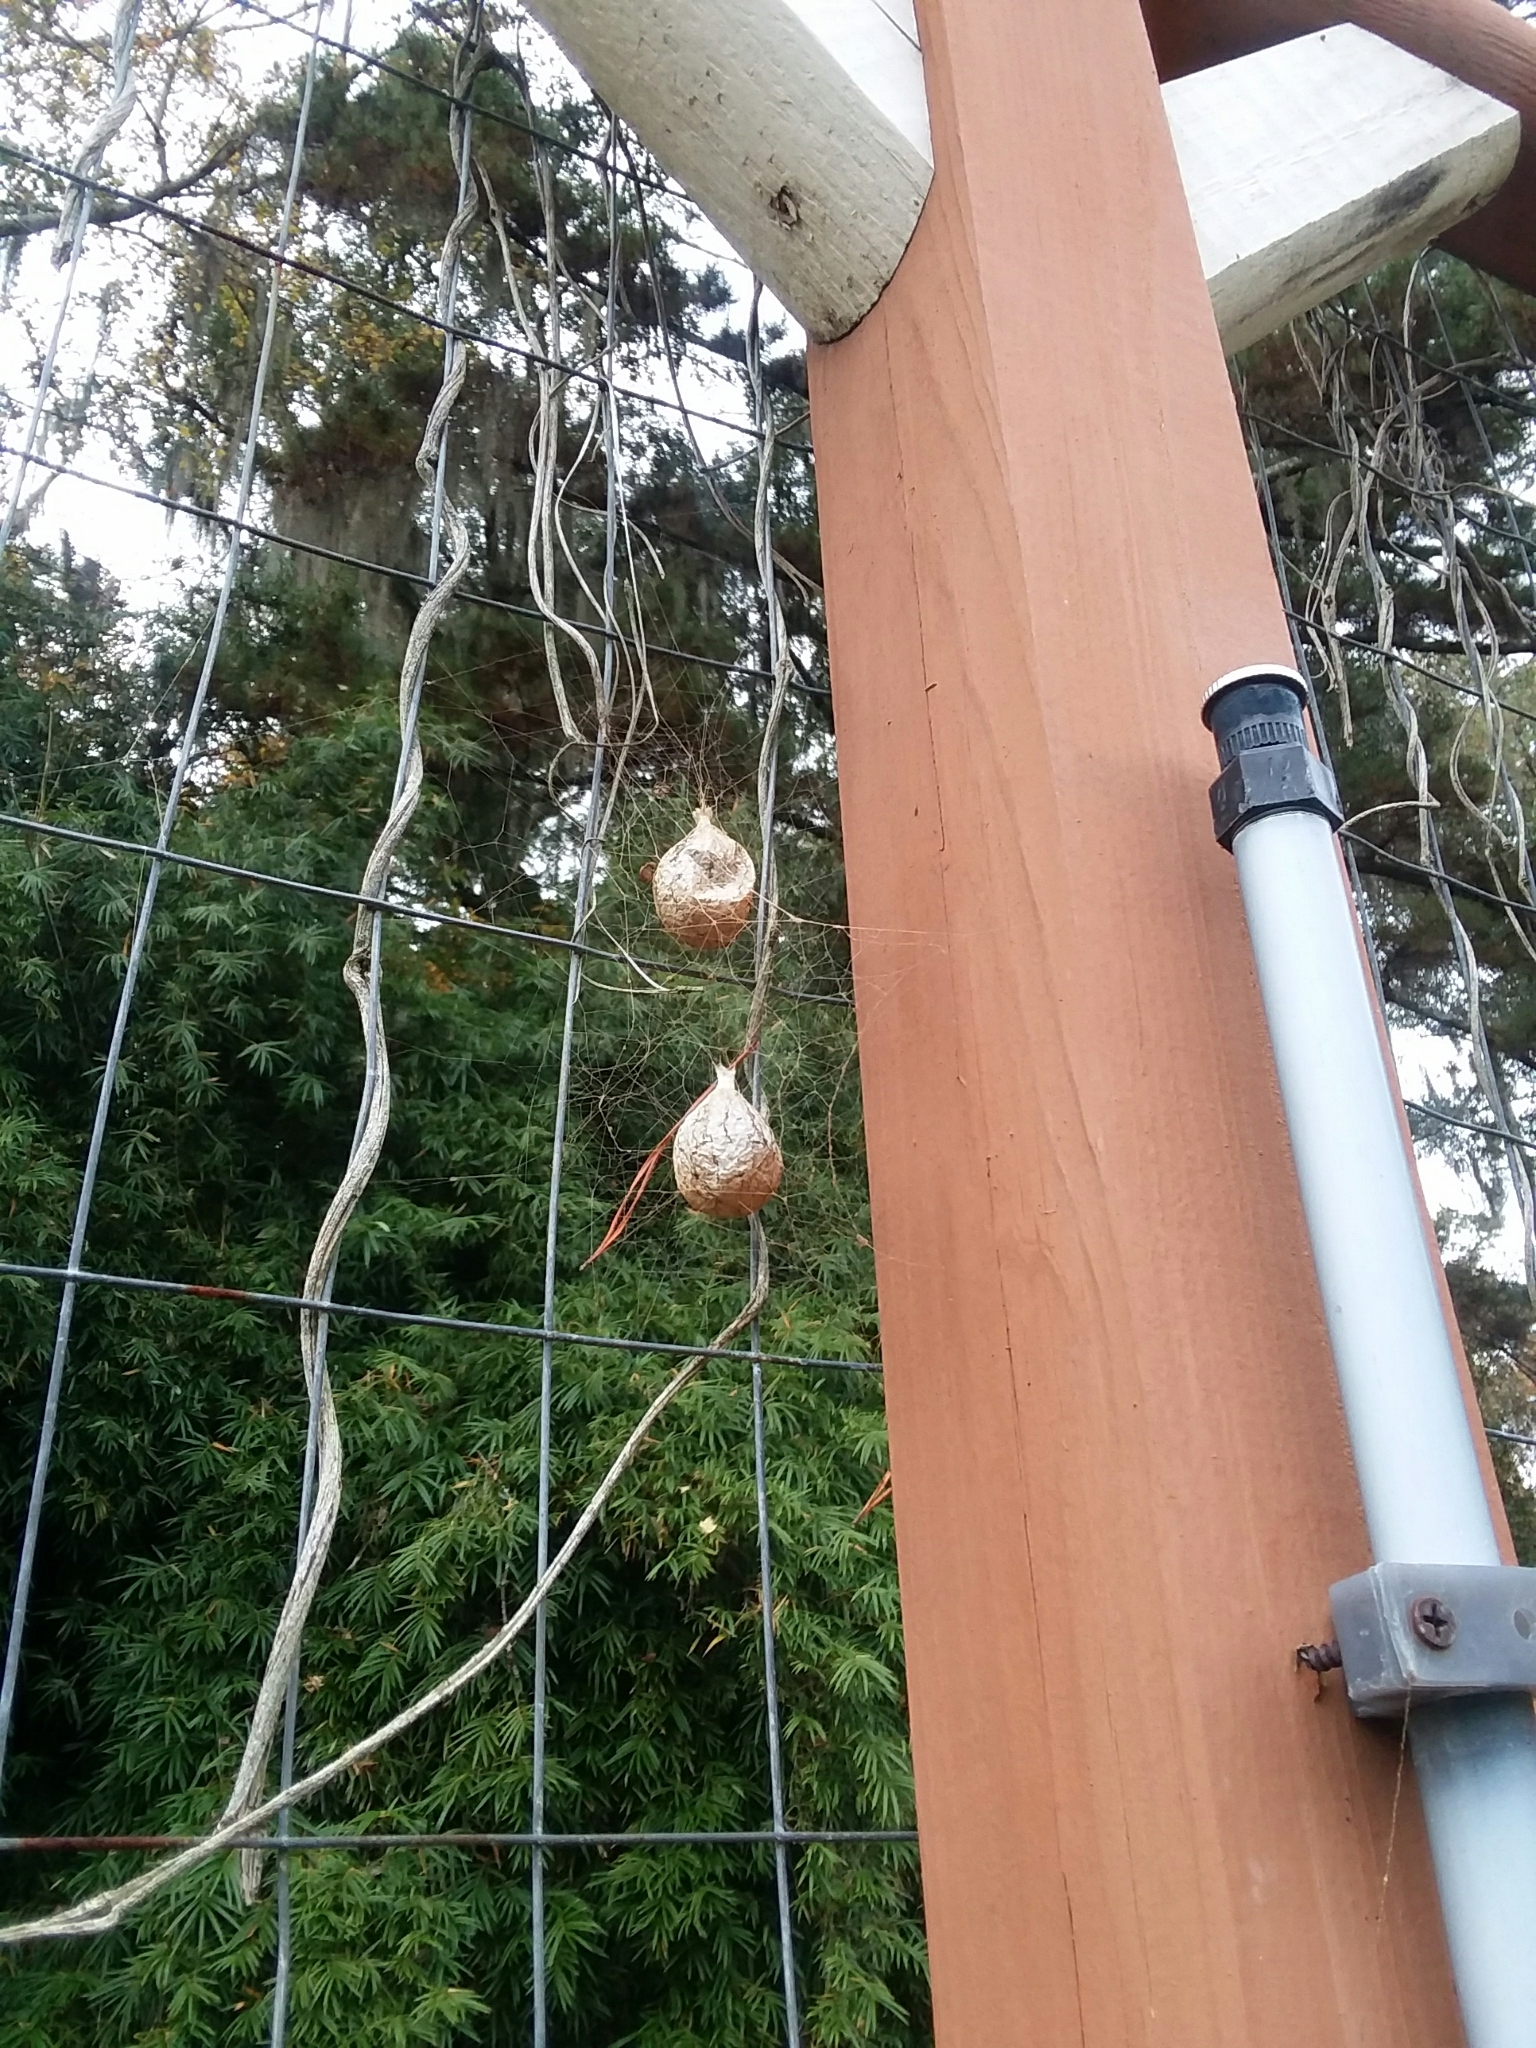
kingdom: Animalia
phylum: Arthropoda
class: Arachnida
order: Araneae
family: Araneidae
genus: Argiope
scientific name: Argiope aurantia
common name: Orb weavers
